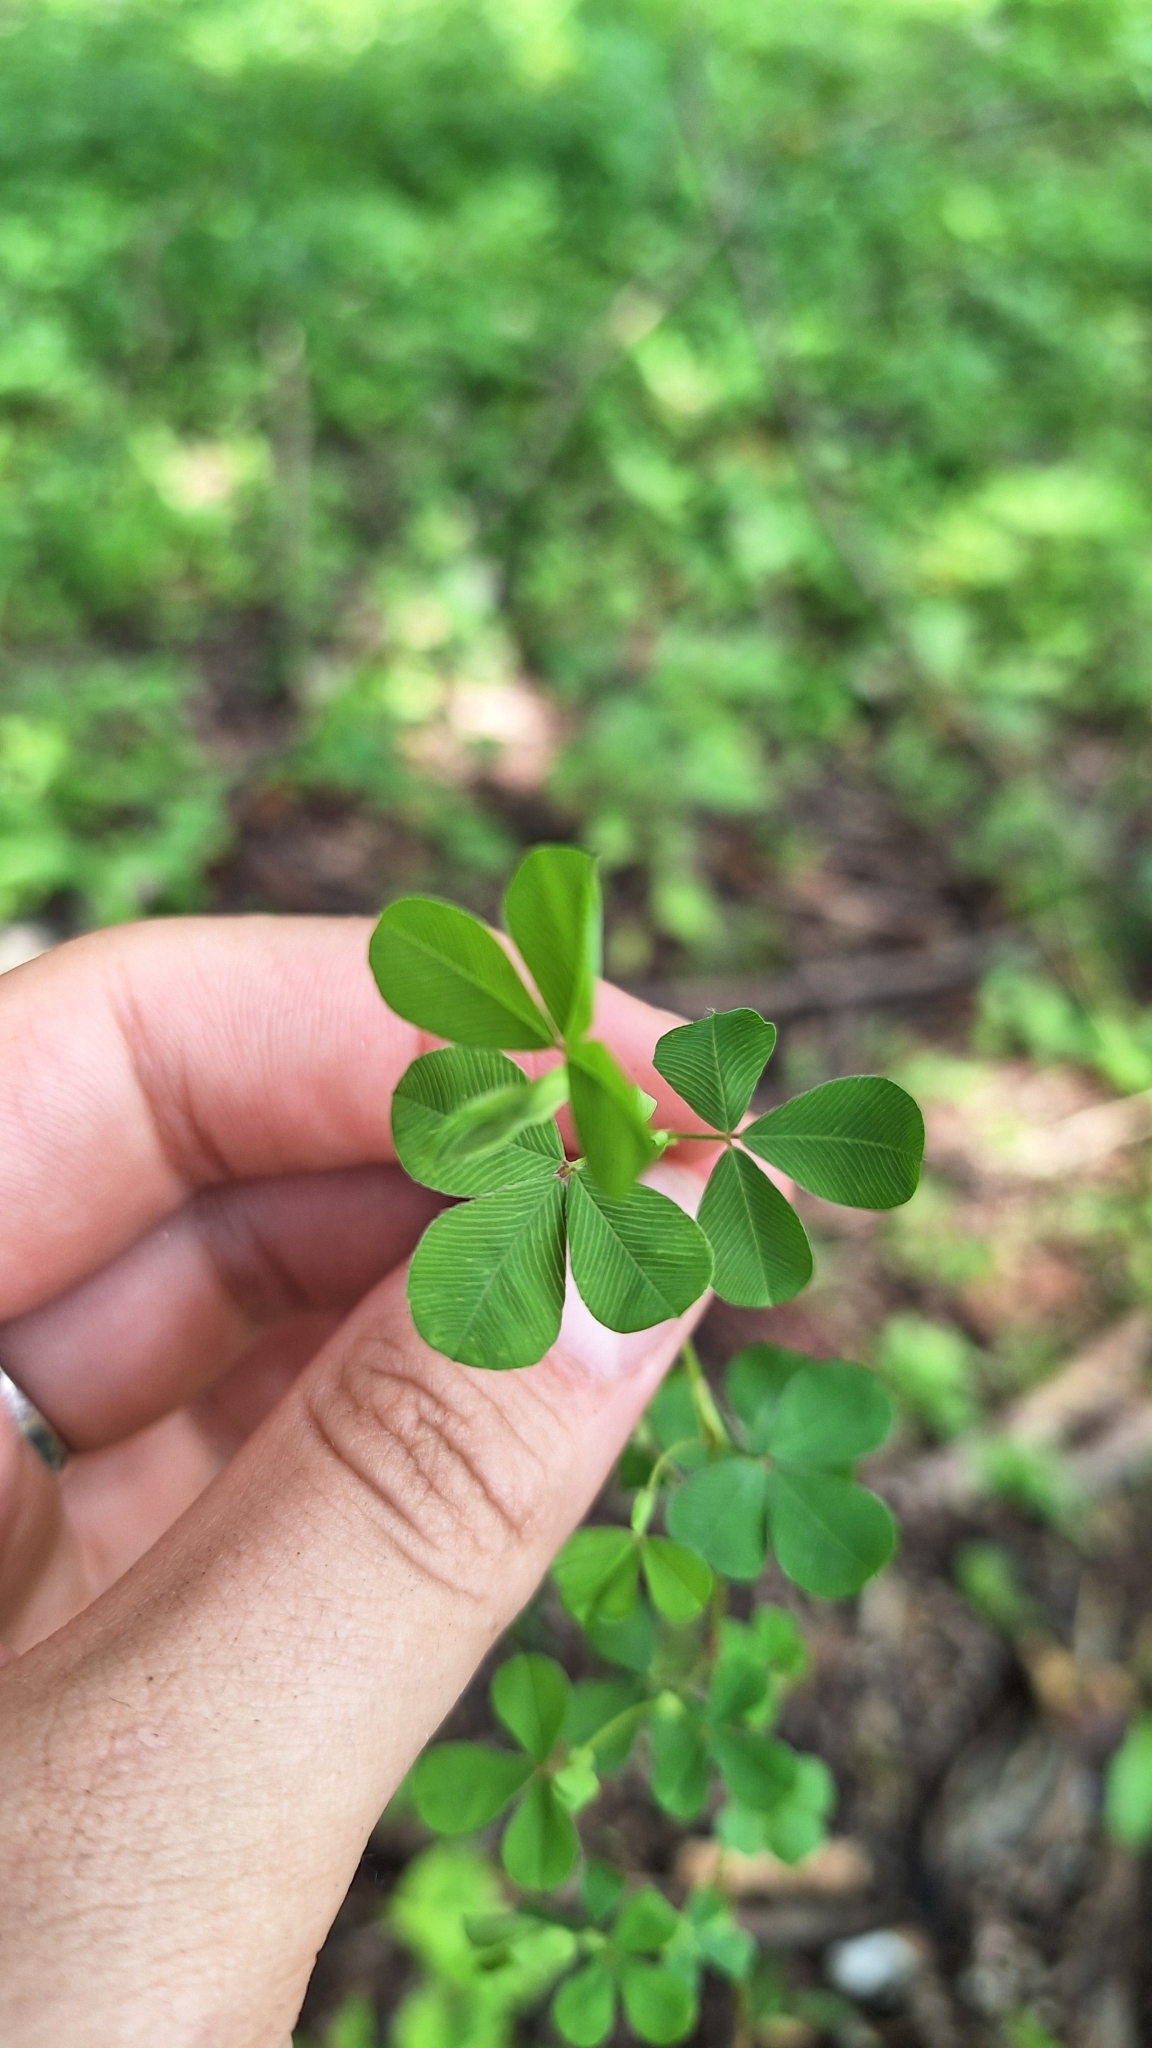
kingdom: Plantae
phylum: Tracheophyta
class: Magnoliopsida
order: Fabales
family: Fabaceae
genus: Kummerowia
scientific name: Kummerowia stipulacea
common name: Korean clover
